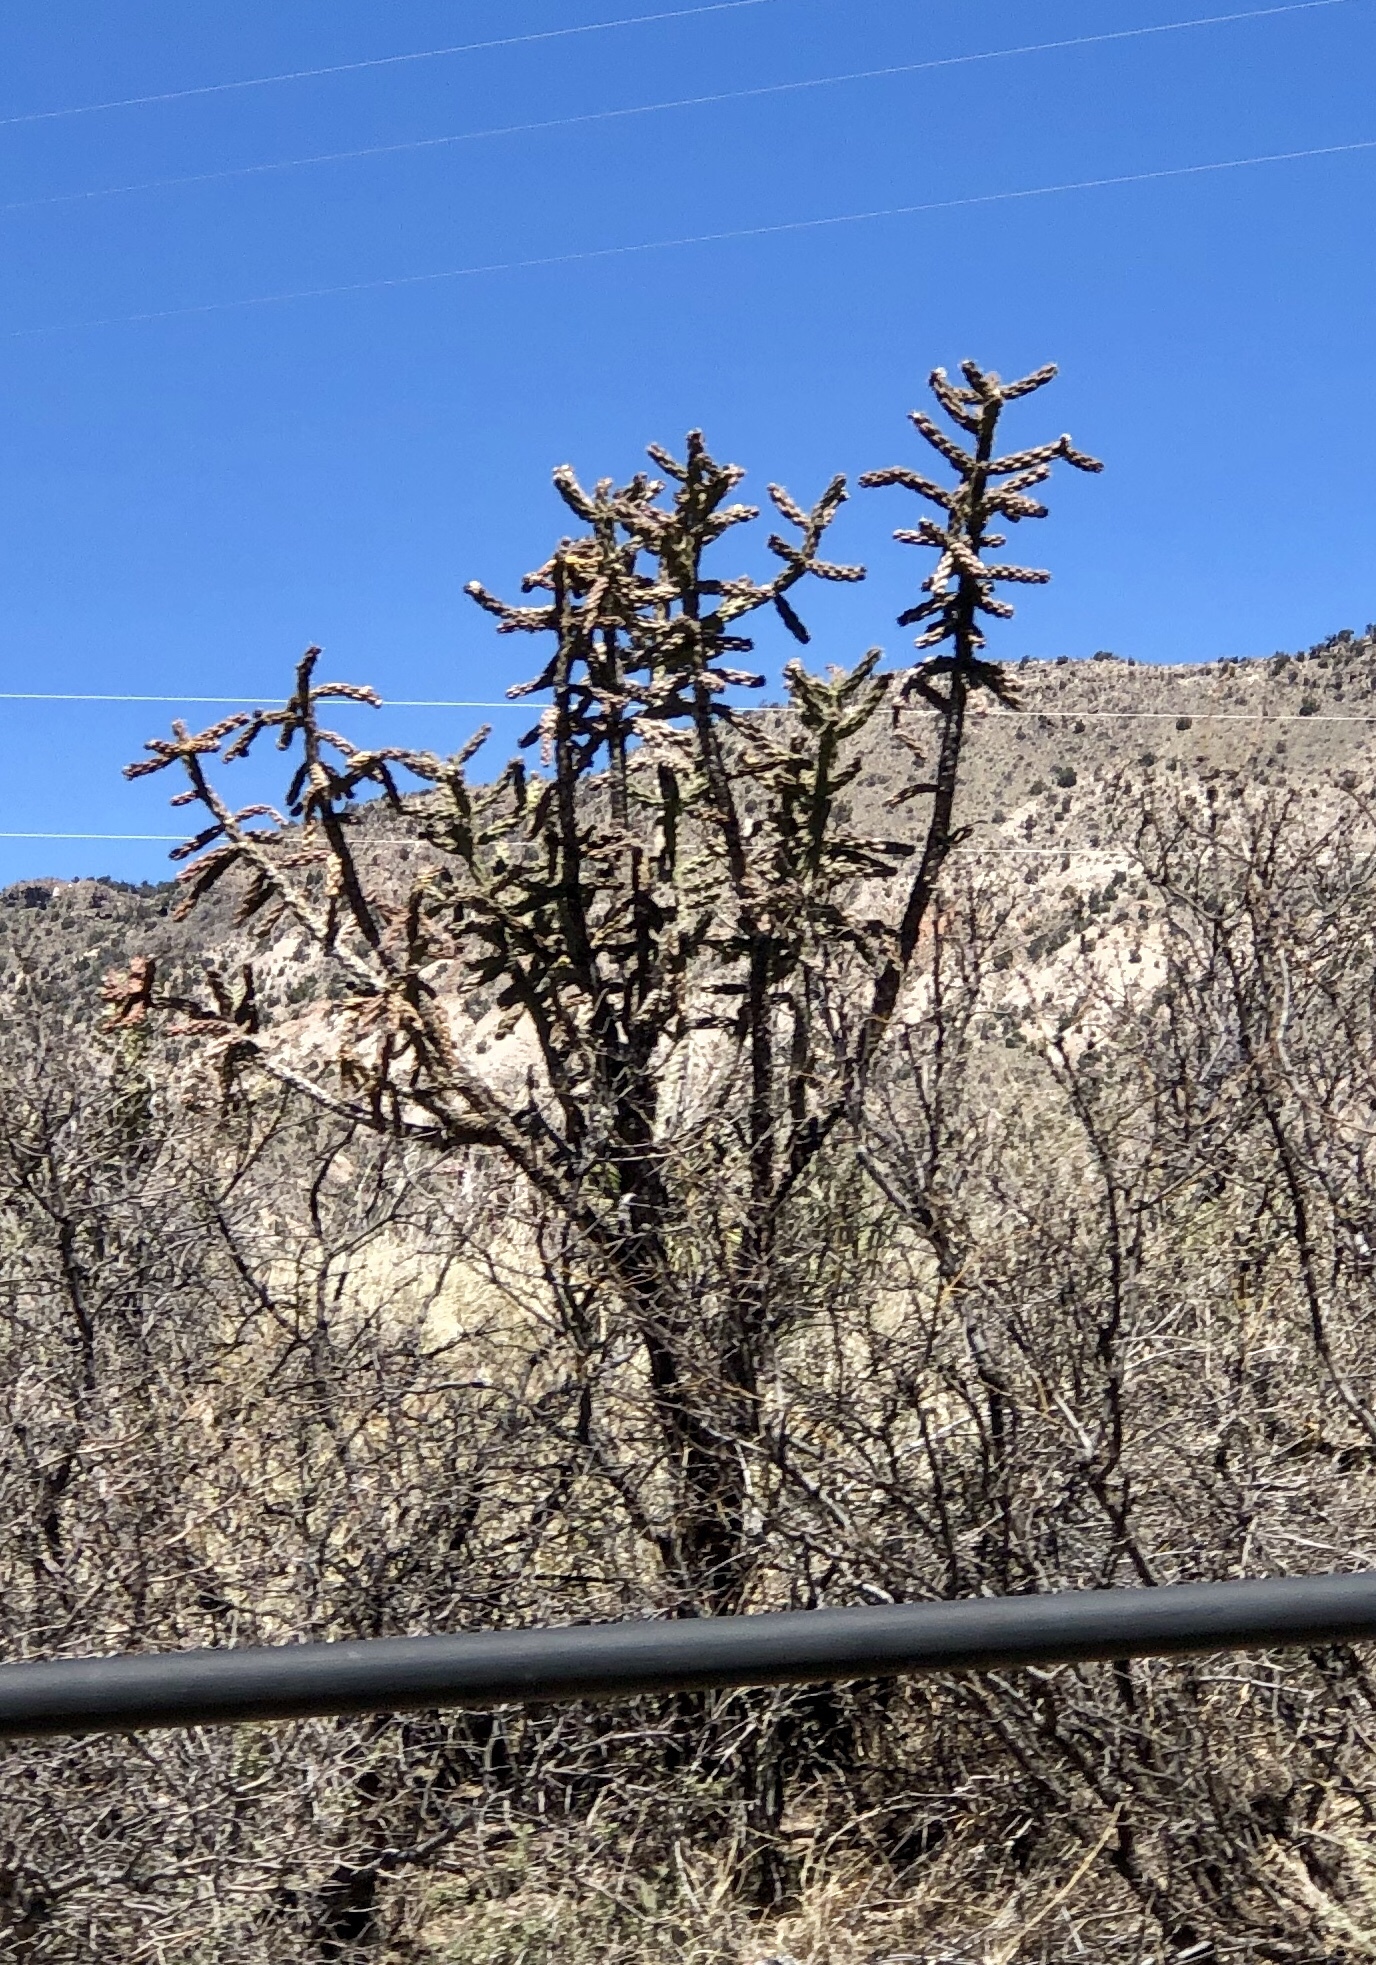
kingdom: Plantae
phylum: Tracheophyta
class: Magnoliopsida
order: Caryophyllales
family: Cactaceae
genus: Cylindropuntia
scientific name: Cylindropuntia imbricata
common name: Candelabrum cactus
